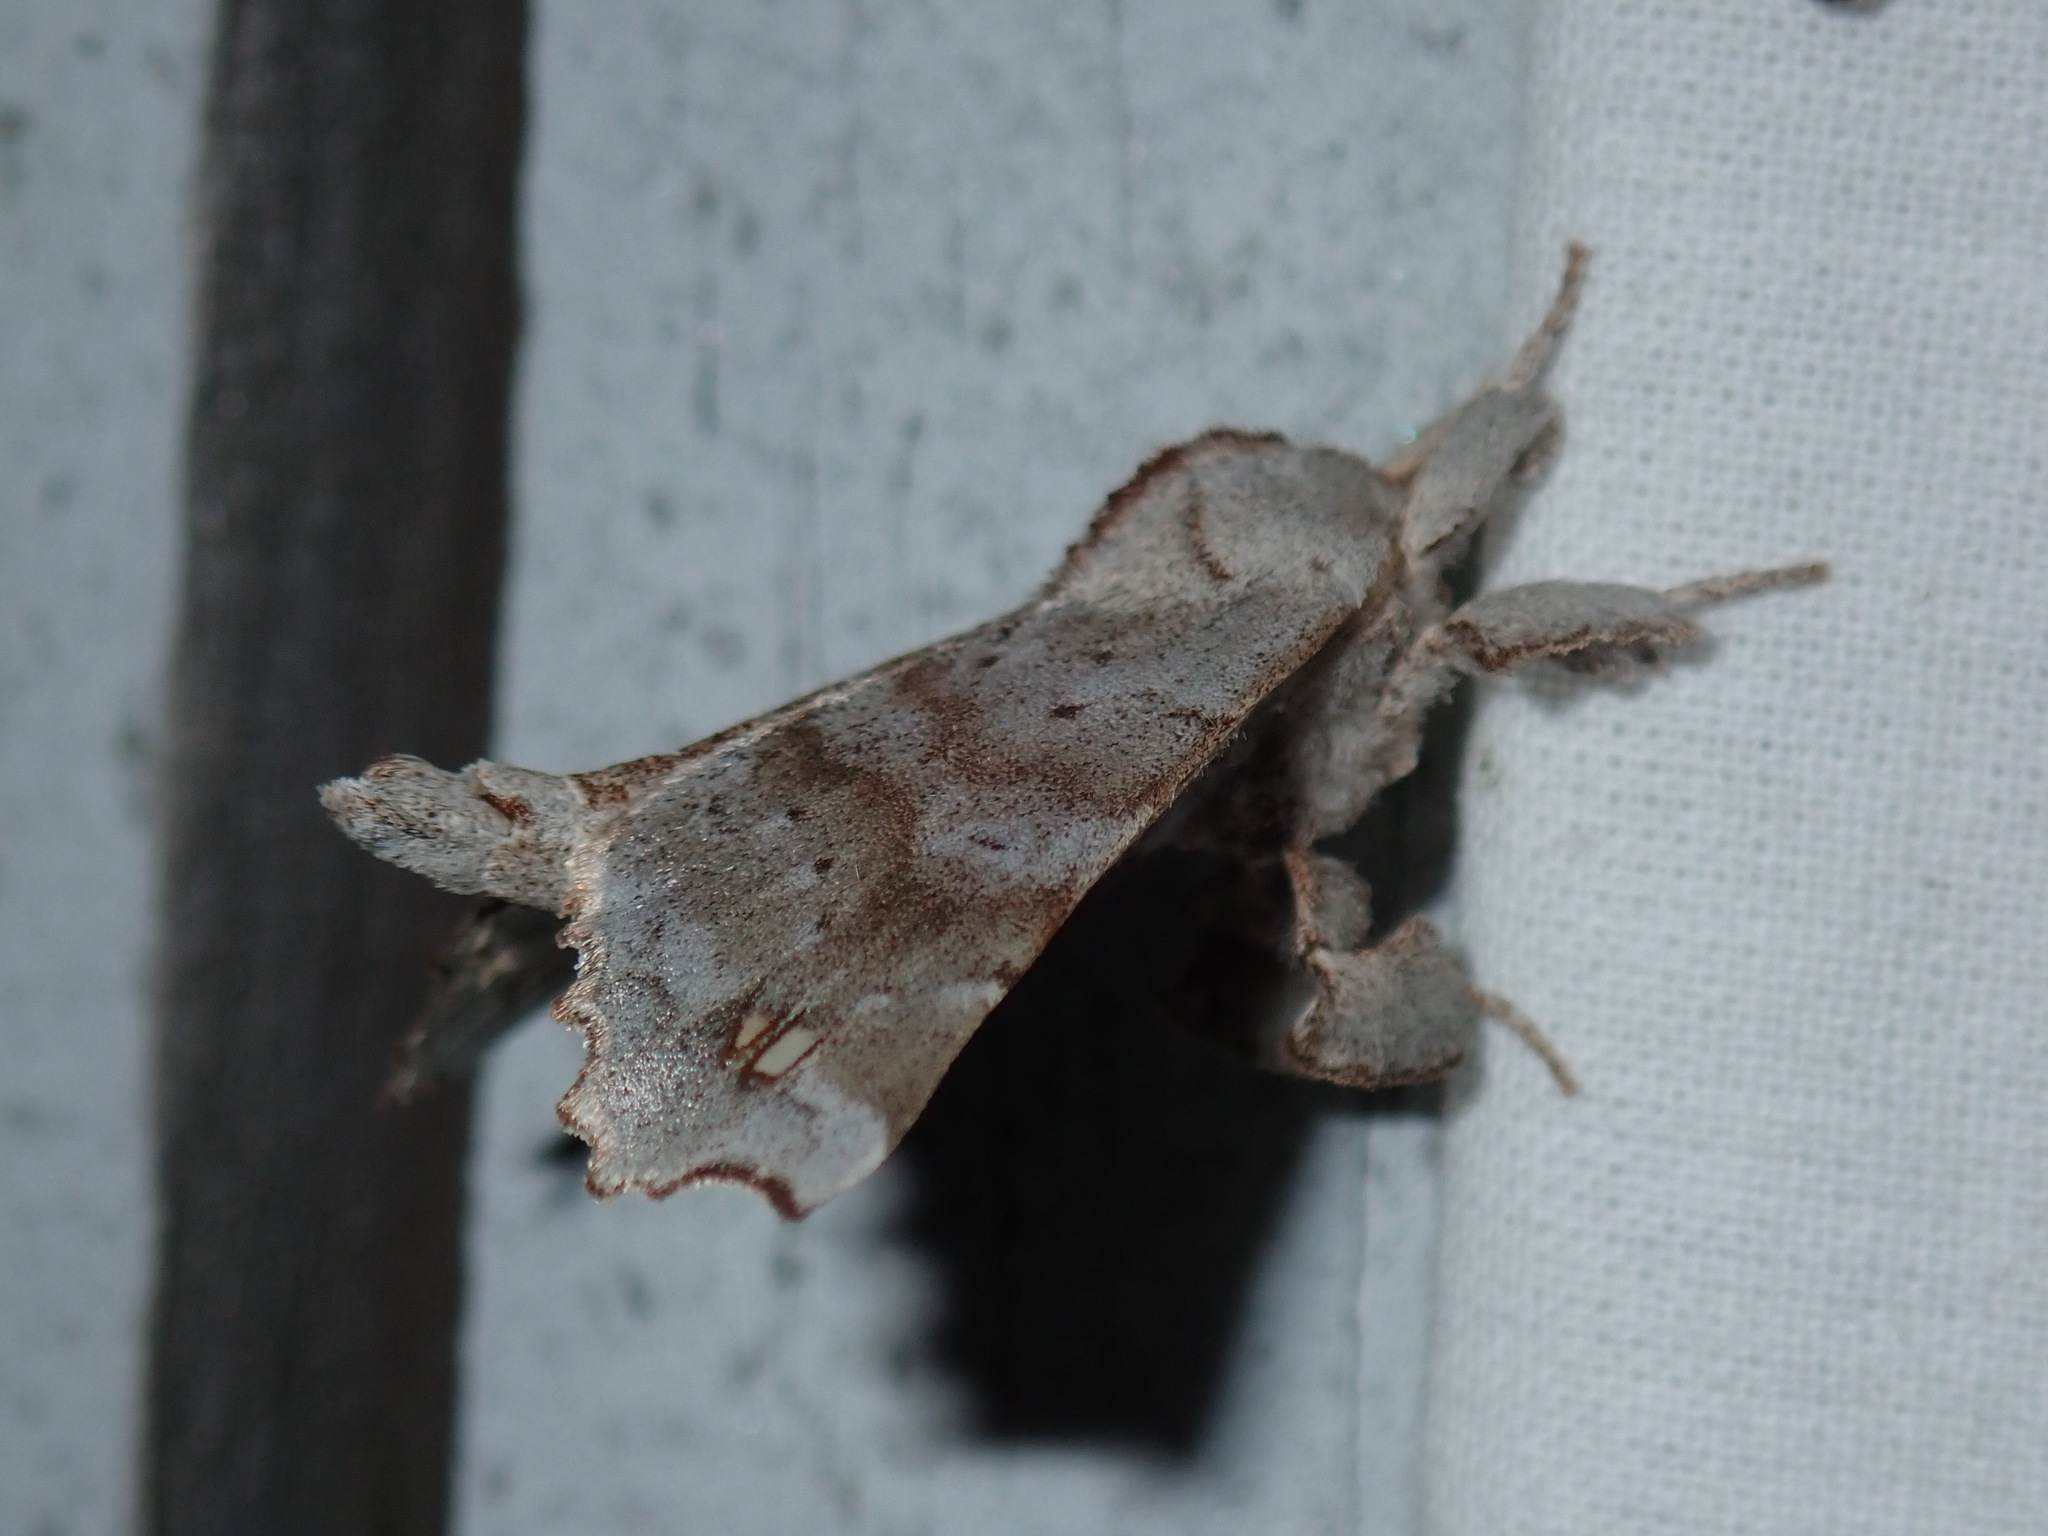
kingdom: Animalia
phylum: Arthropoda
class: Insecta
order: Lepidoptera
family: Apatelodidae
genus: Olceclostera
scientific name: Olceclostera angelica
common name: Angel moth
